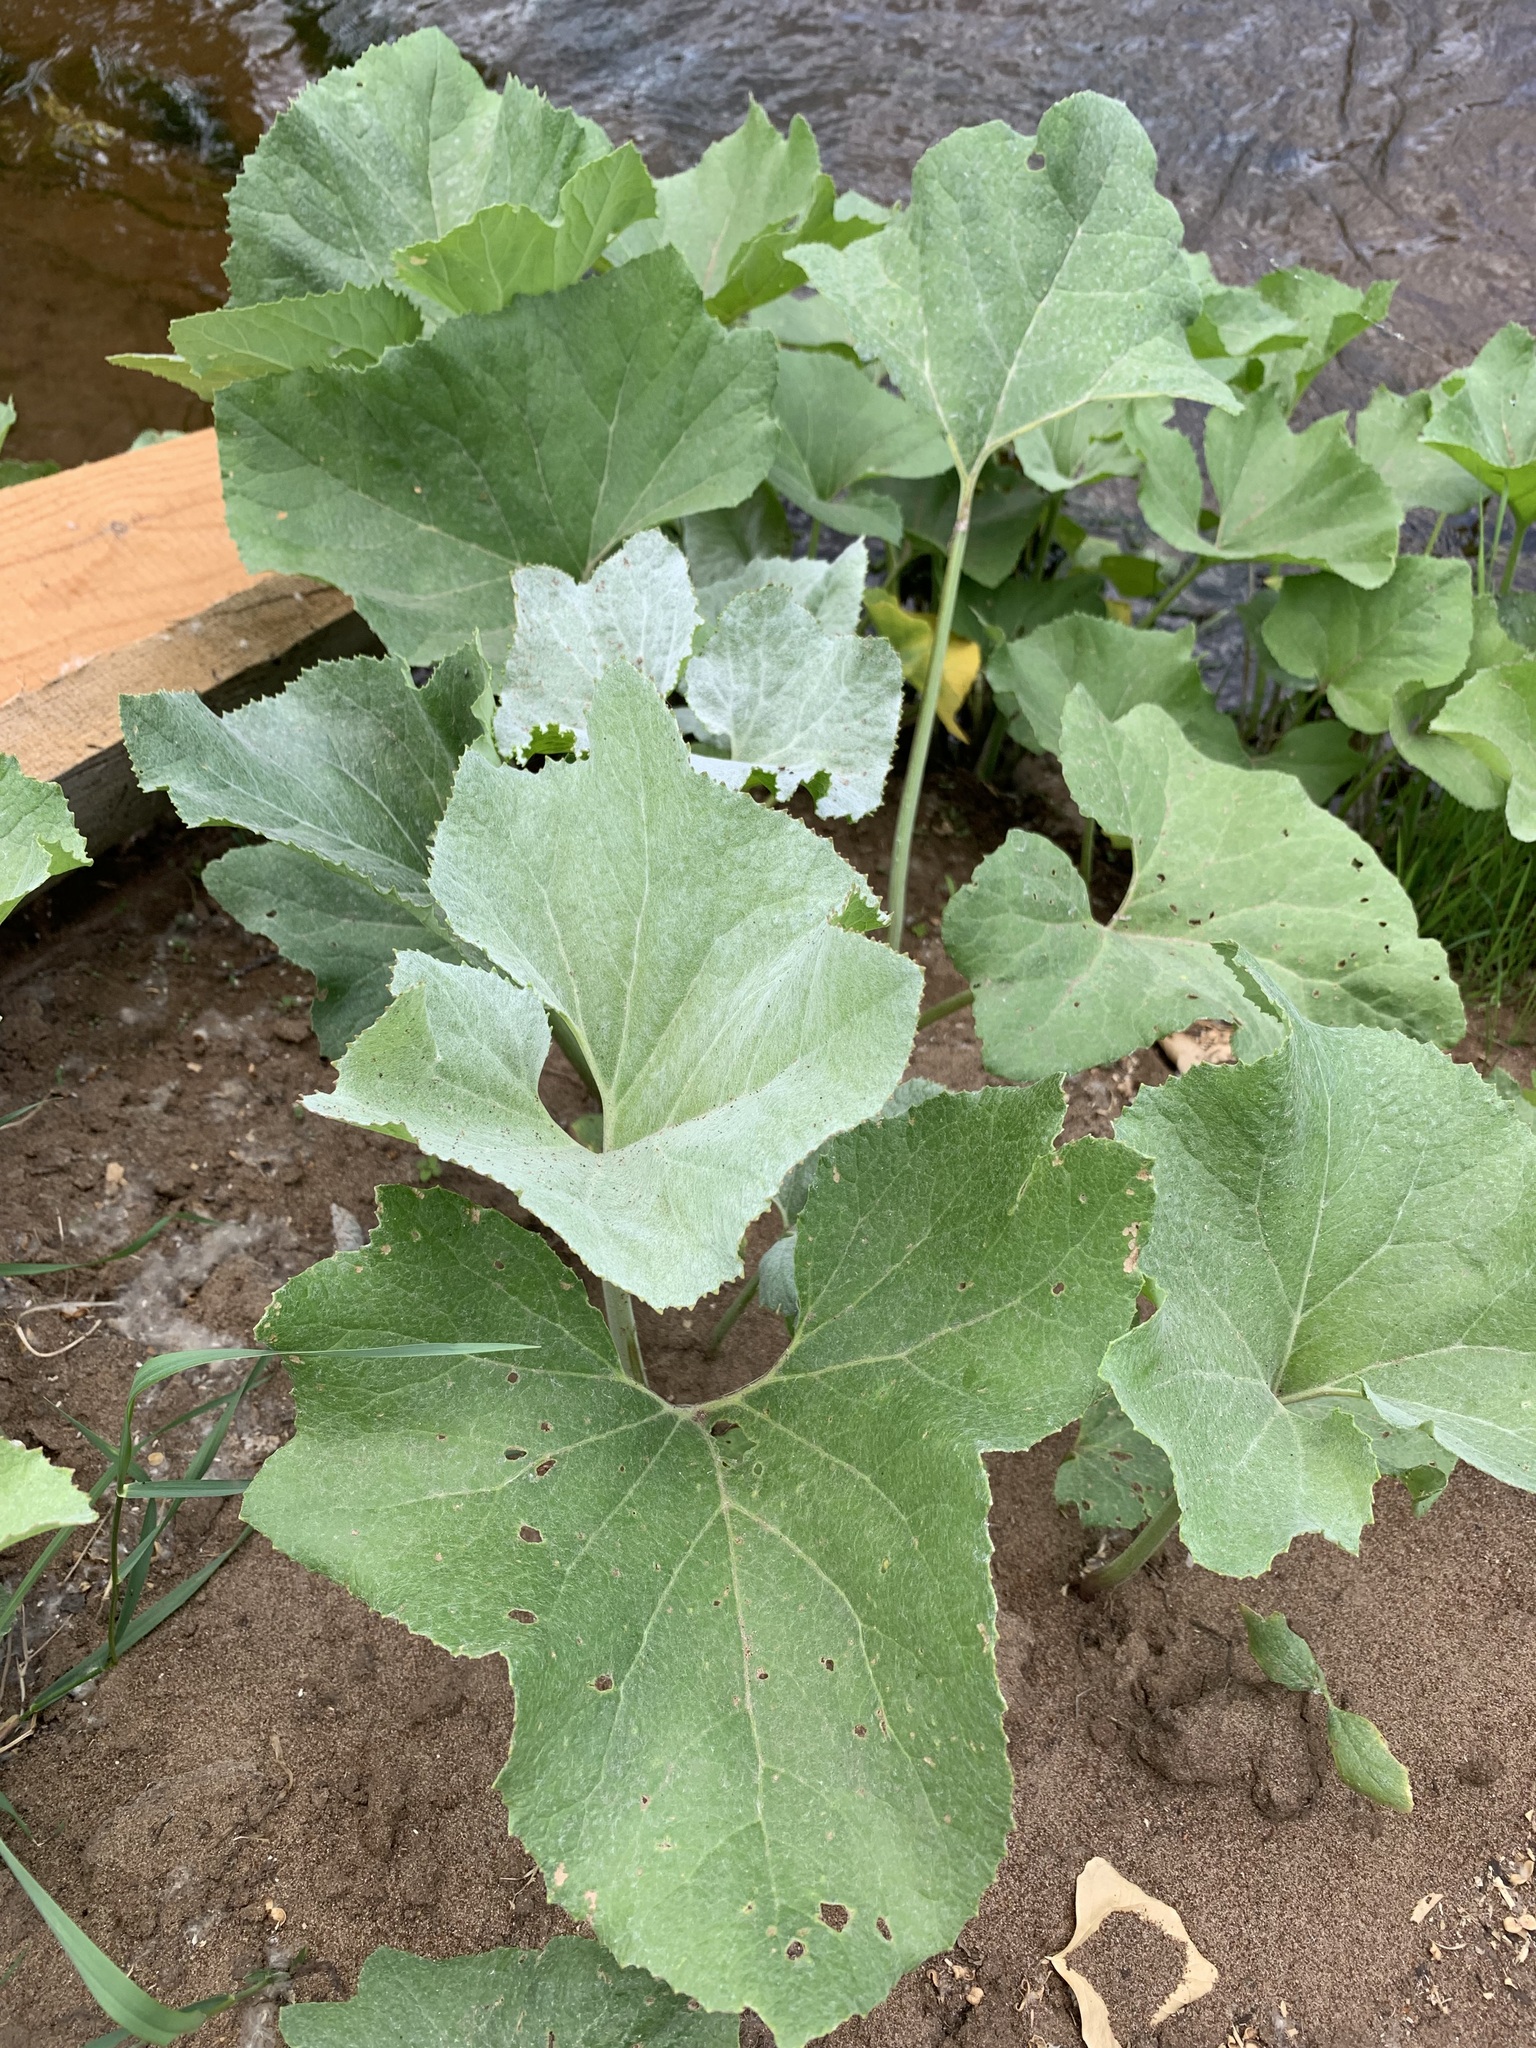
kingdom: Plantae
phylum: Tracheophyta
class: Magnoliopsida
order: Asterales
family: Asteraceae
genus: Petasites
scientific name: Petasites spurius
